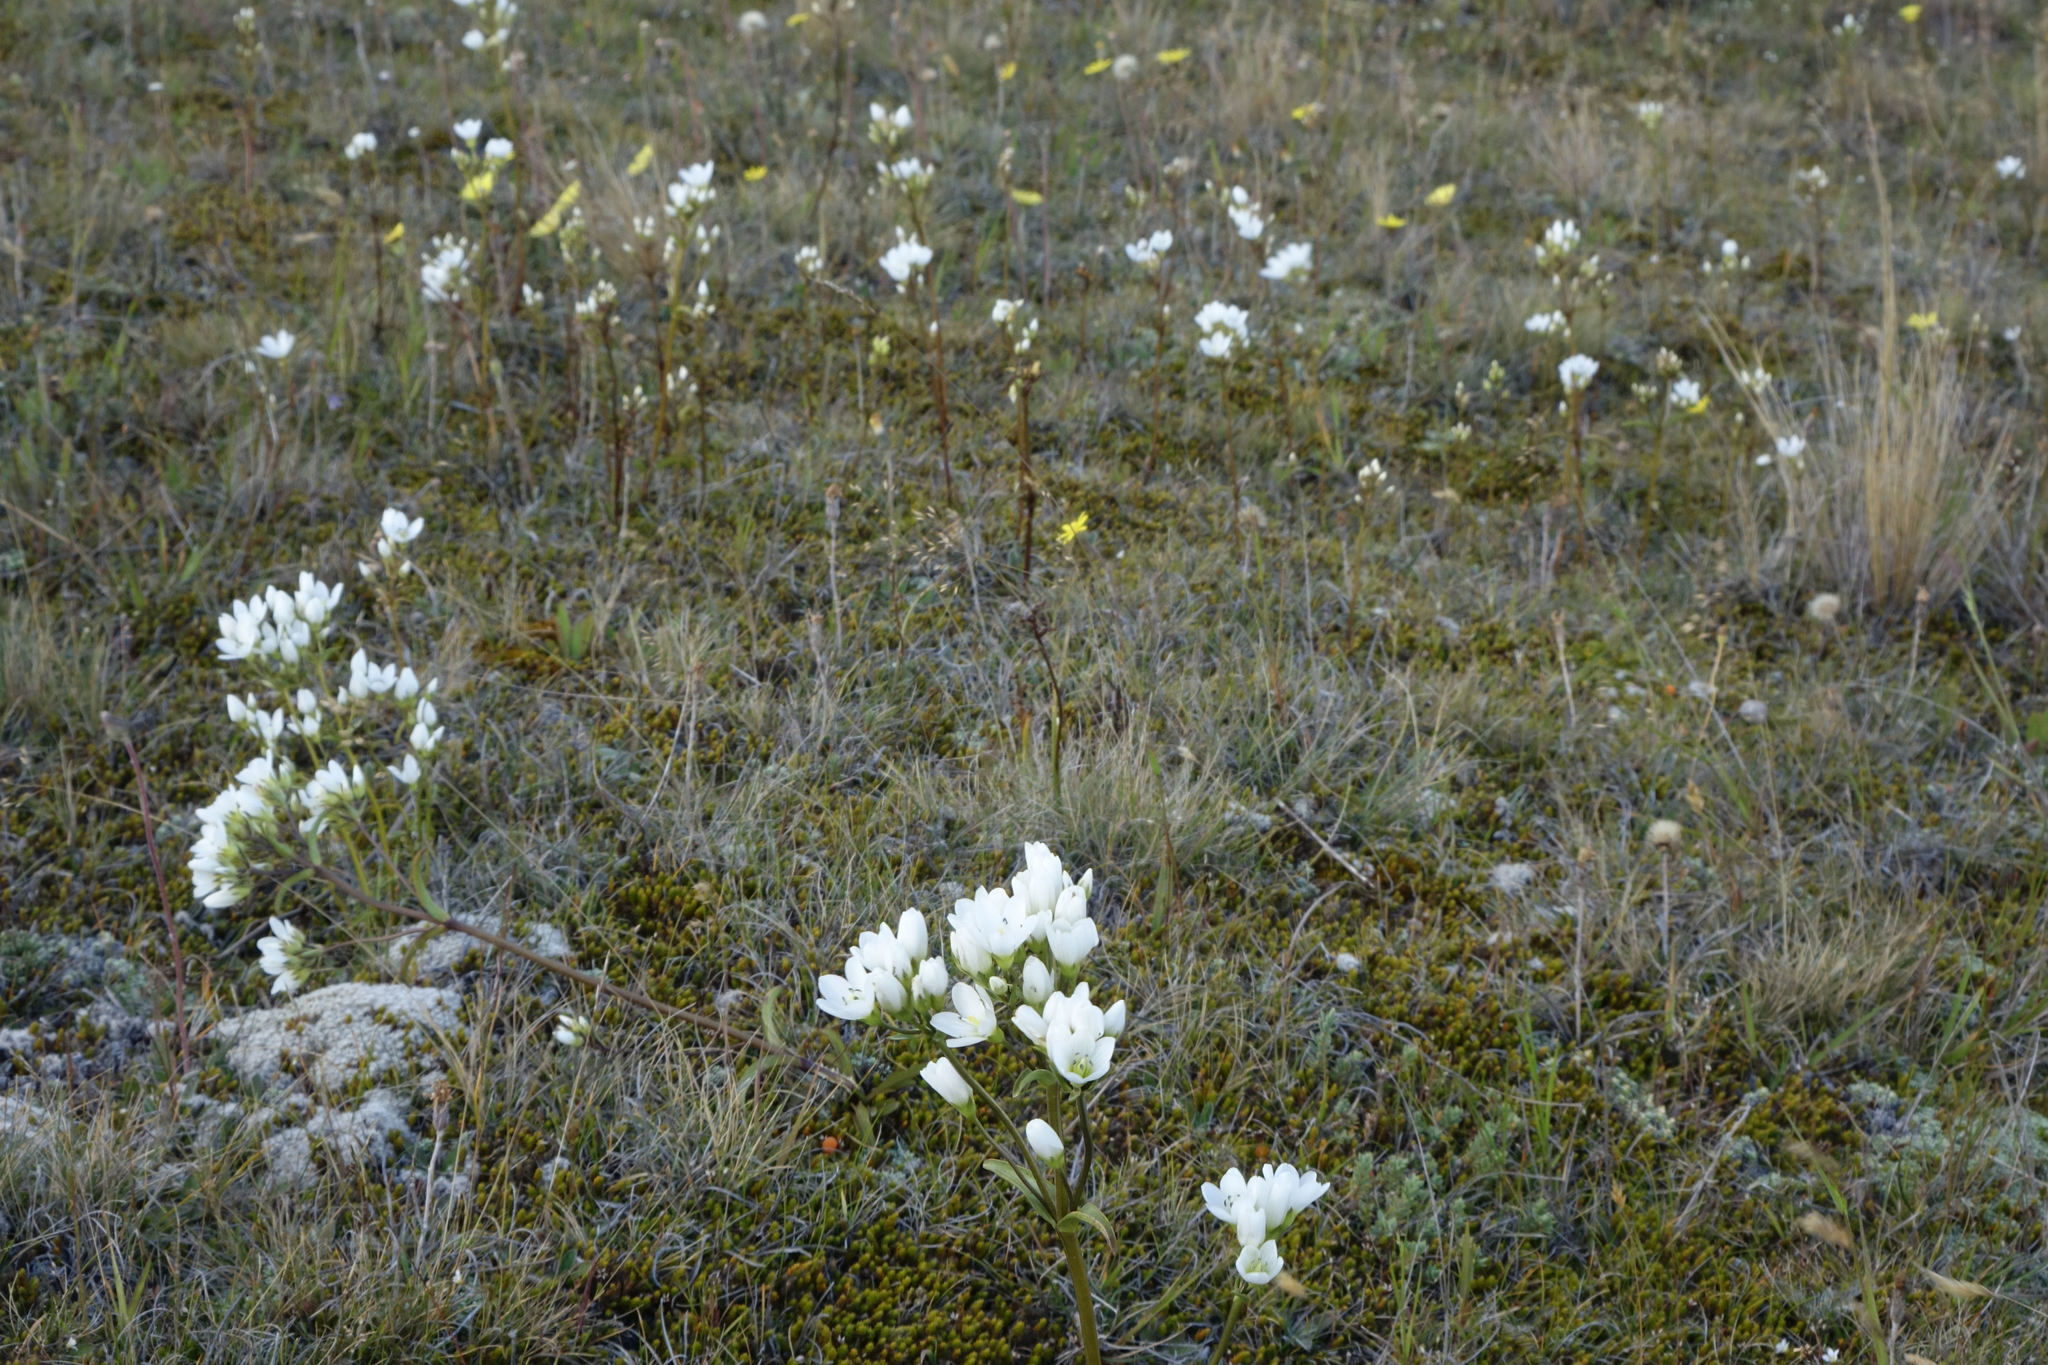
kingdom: Plantae
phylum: Tracheophyta
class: Magnoliopsida
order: Gentianales
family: Gentianaceae
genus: Gentianella
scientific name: Gentianella corymbifera
